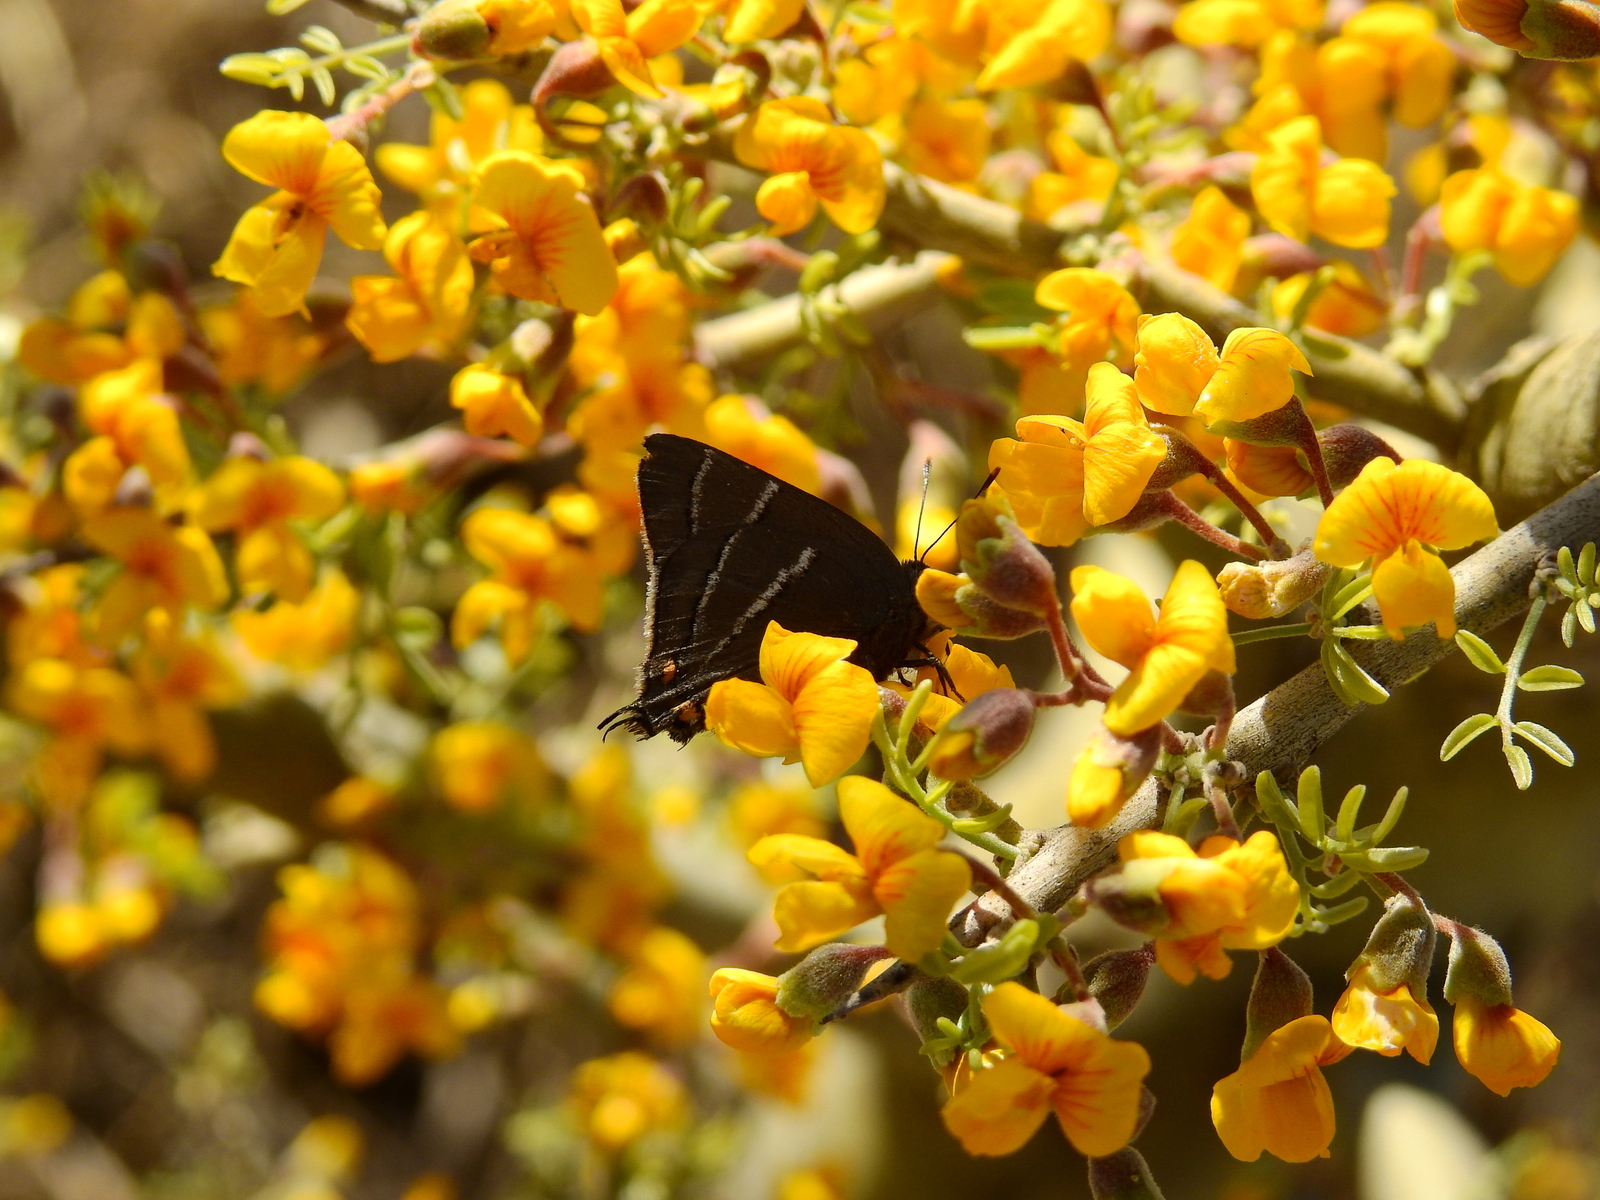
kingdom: Animalia
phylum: Arthropoda
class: Insecta
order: Lepidoptera
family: Lycaenidae
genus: Atlides
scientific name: Atlides
